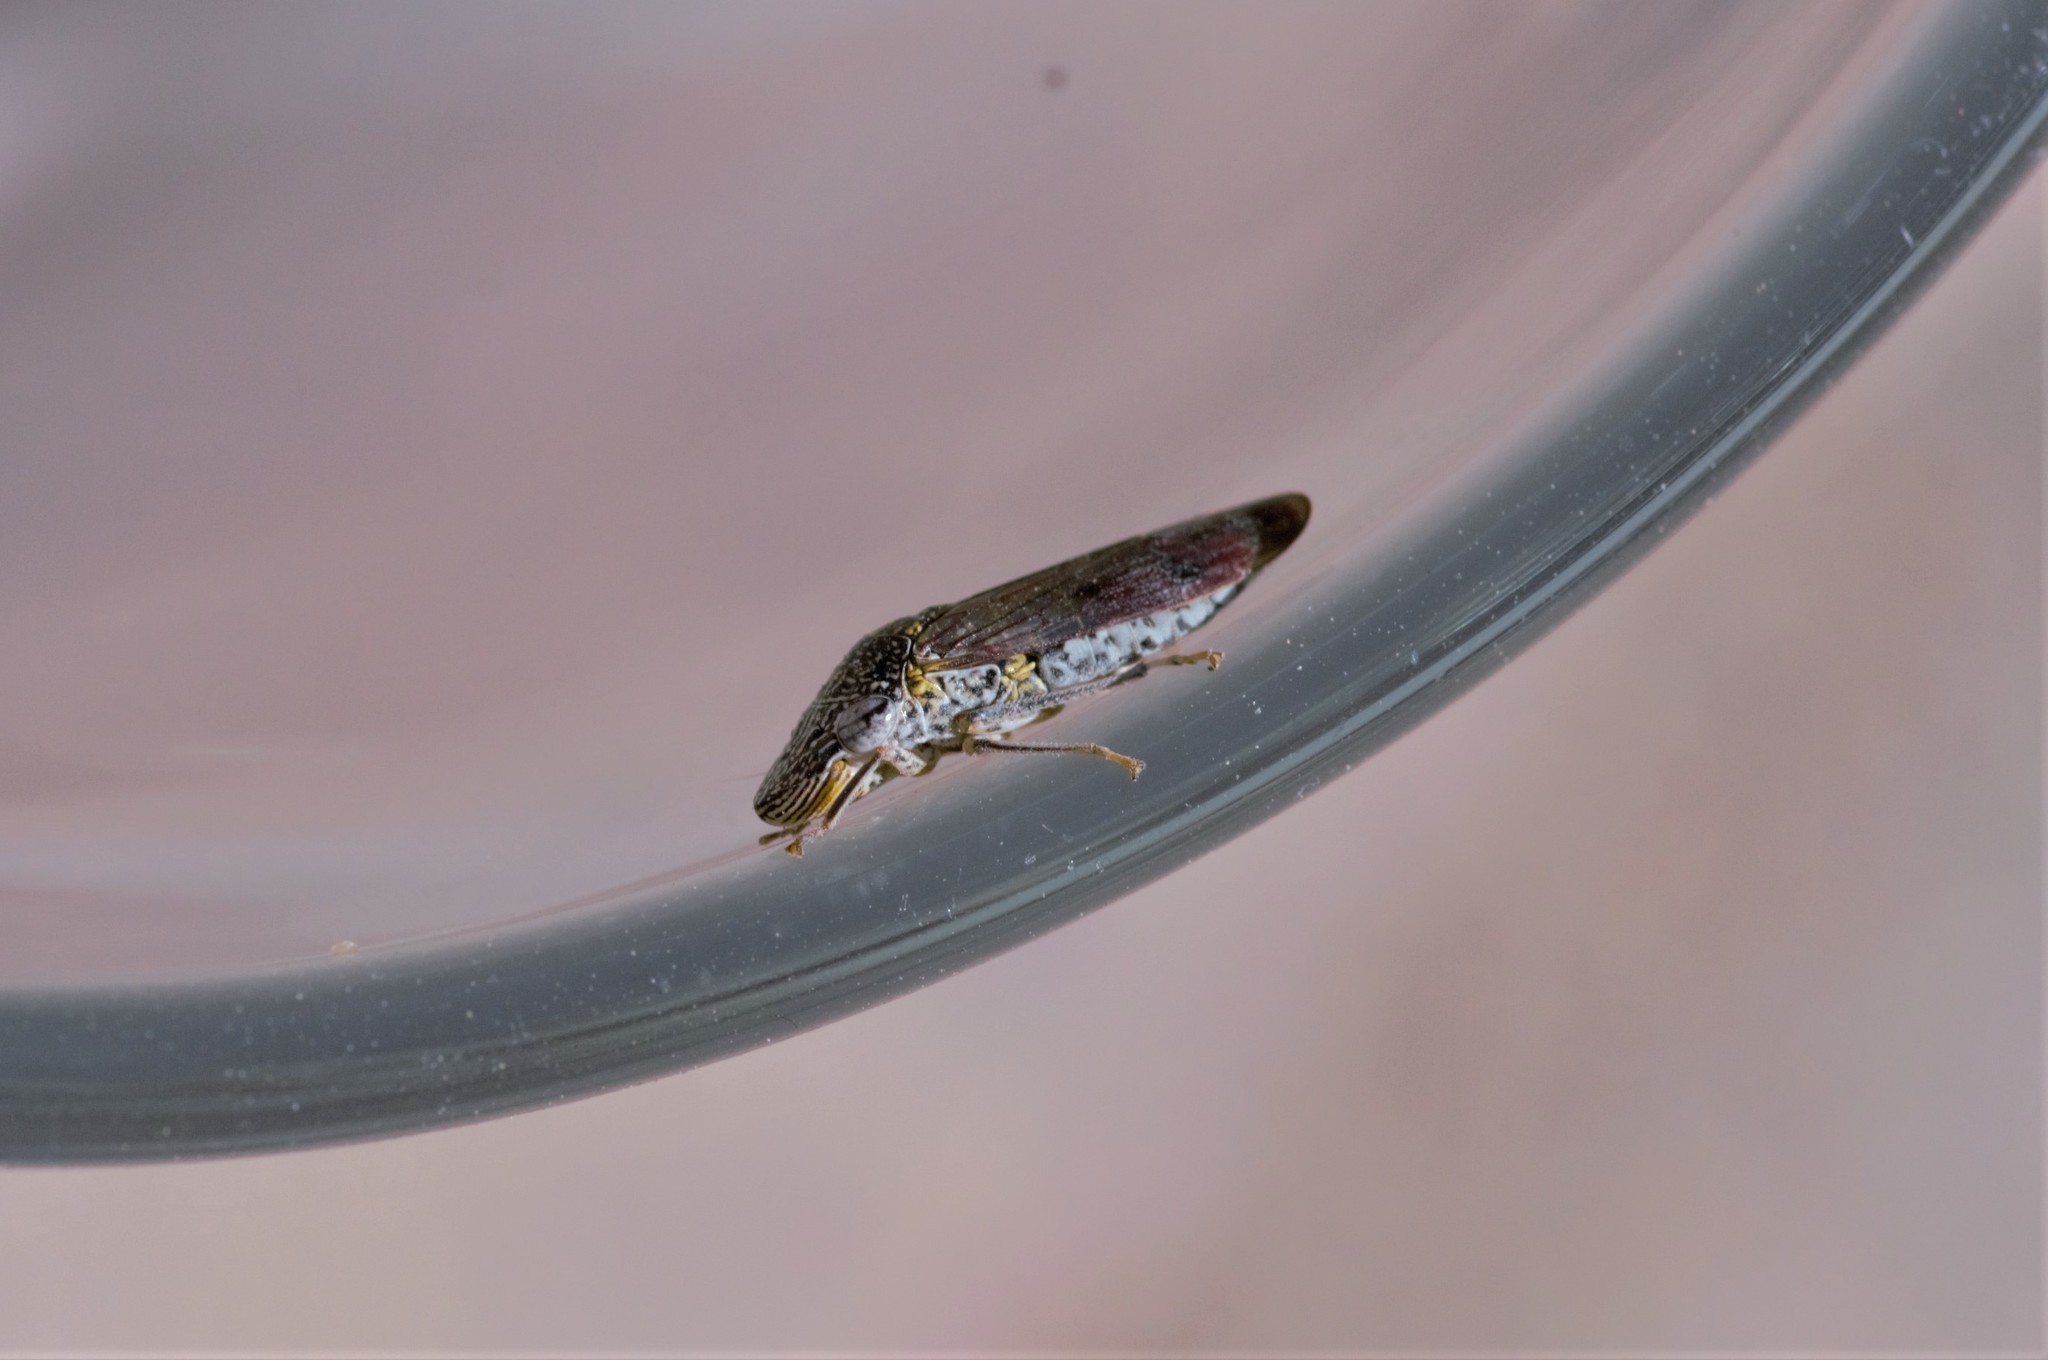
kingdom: Animalia
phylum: Arthropoda
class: Insecta
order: Hemiptera
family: Cicadellidae
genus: Homalodisca
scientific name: Homalodisca liturata
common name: Lacertate sharpshooter
